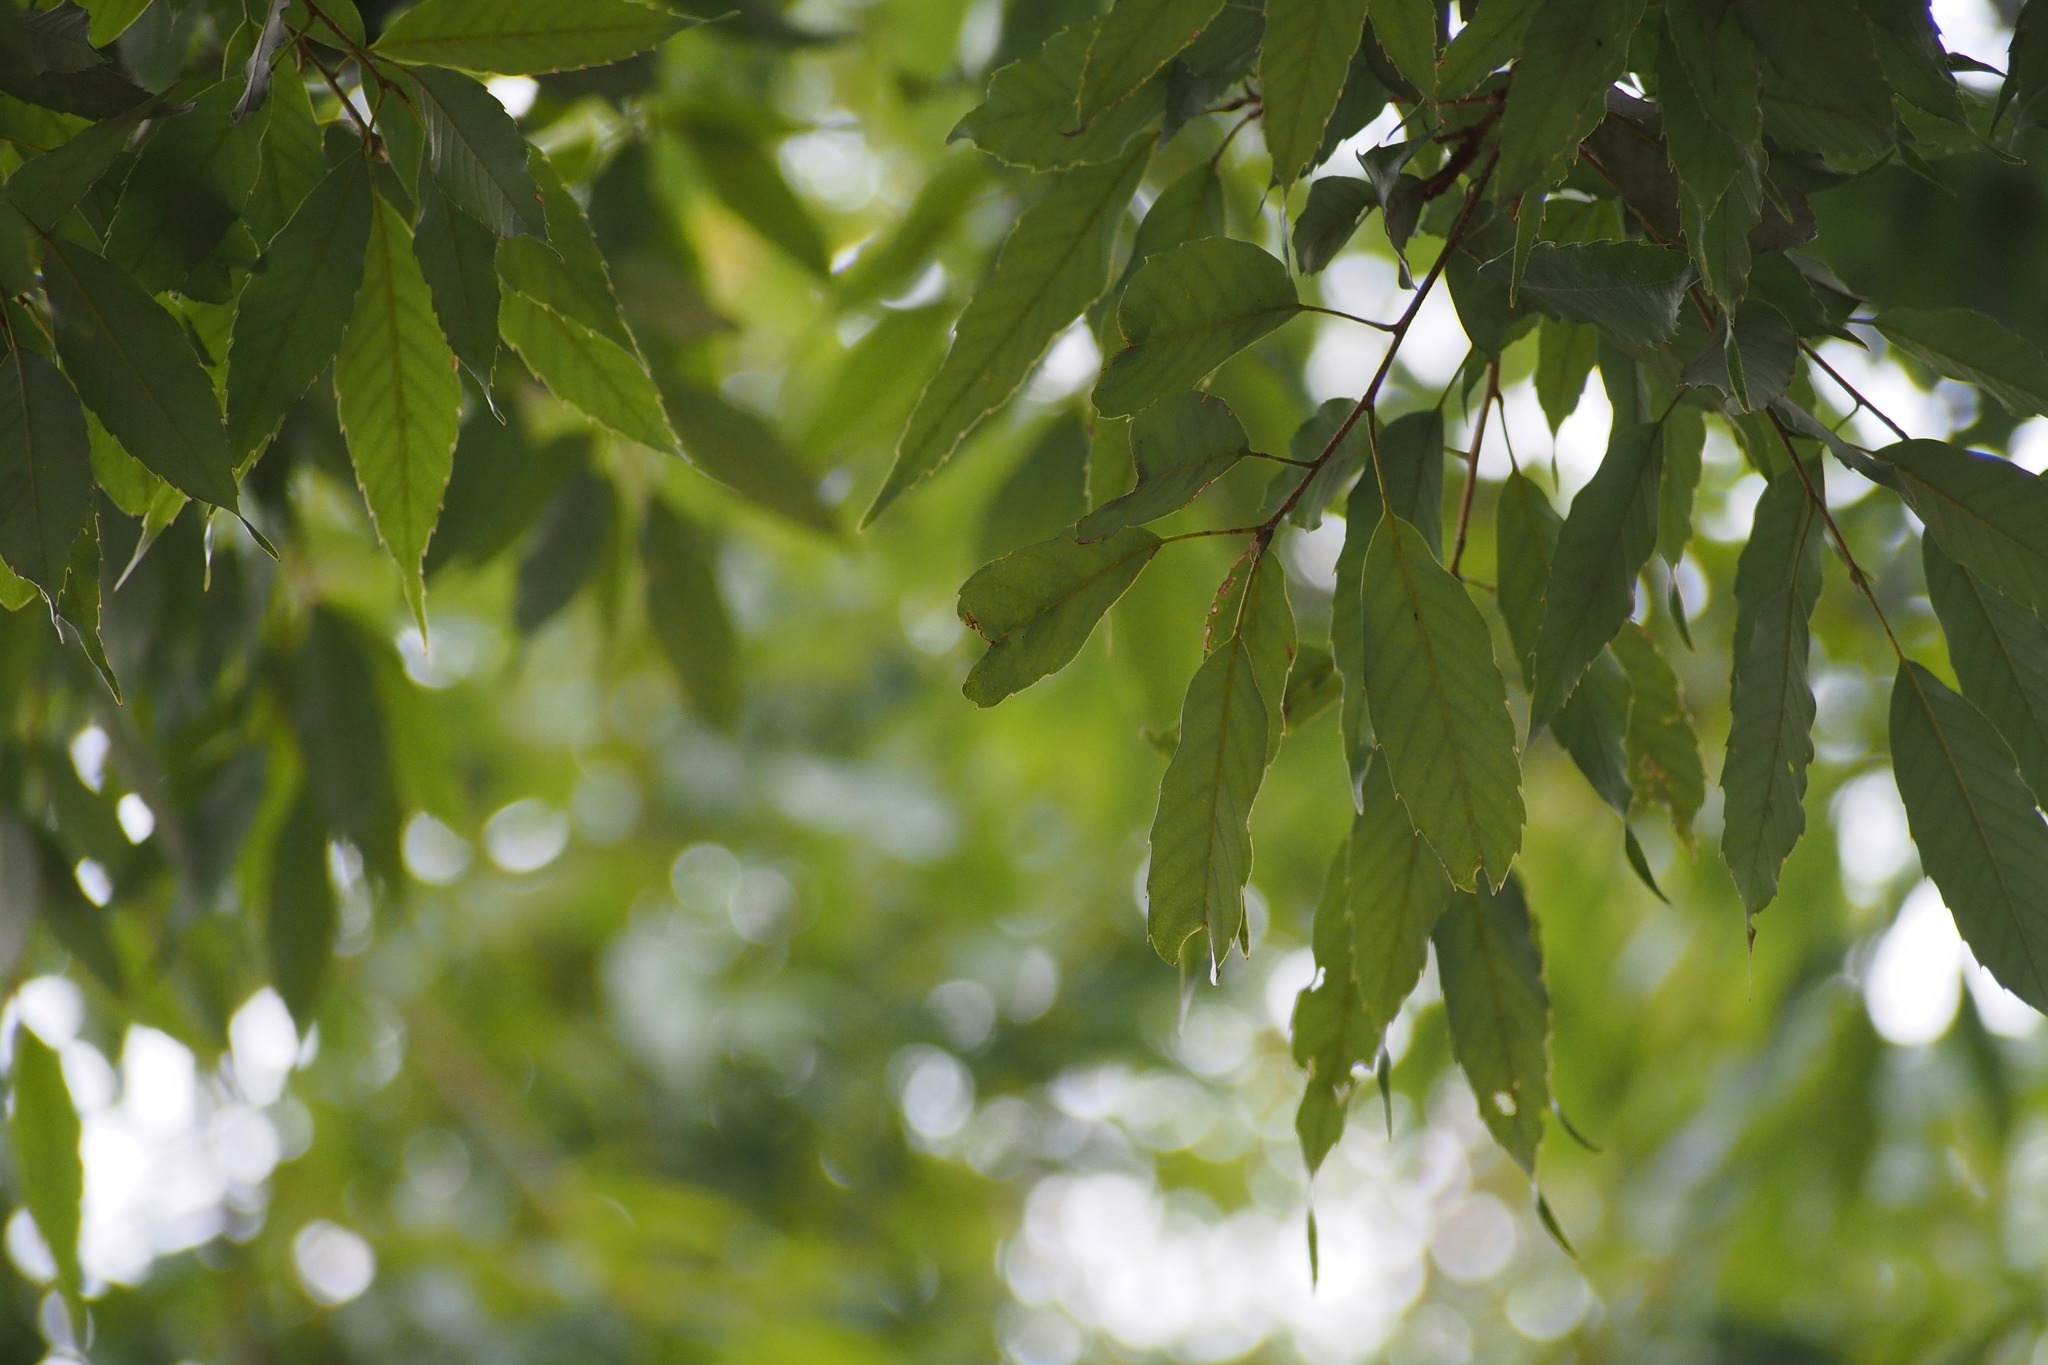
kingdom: Plantae
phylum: Tracheophyta
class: Magnoliopsida
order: Fagales
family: Fagaceae
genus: Quercus
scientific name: Quercus myrsinifolia
